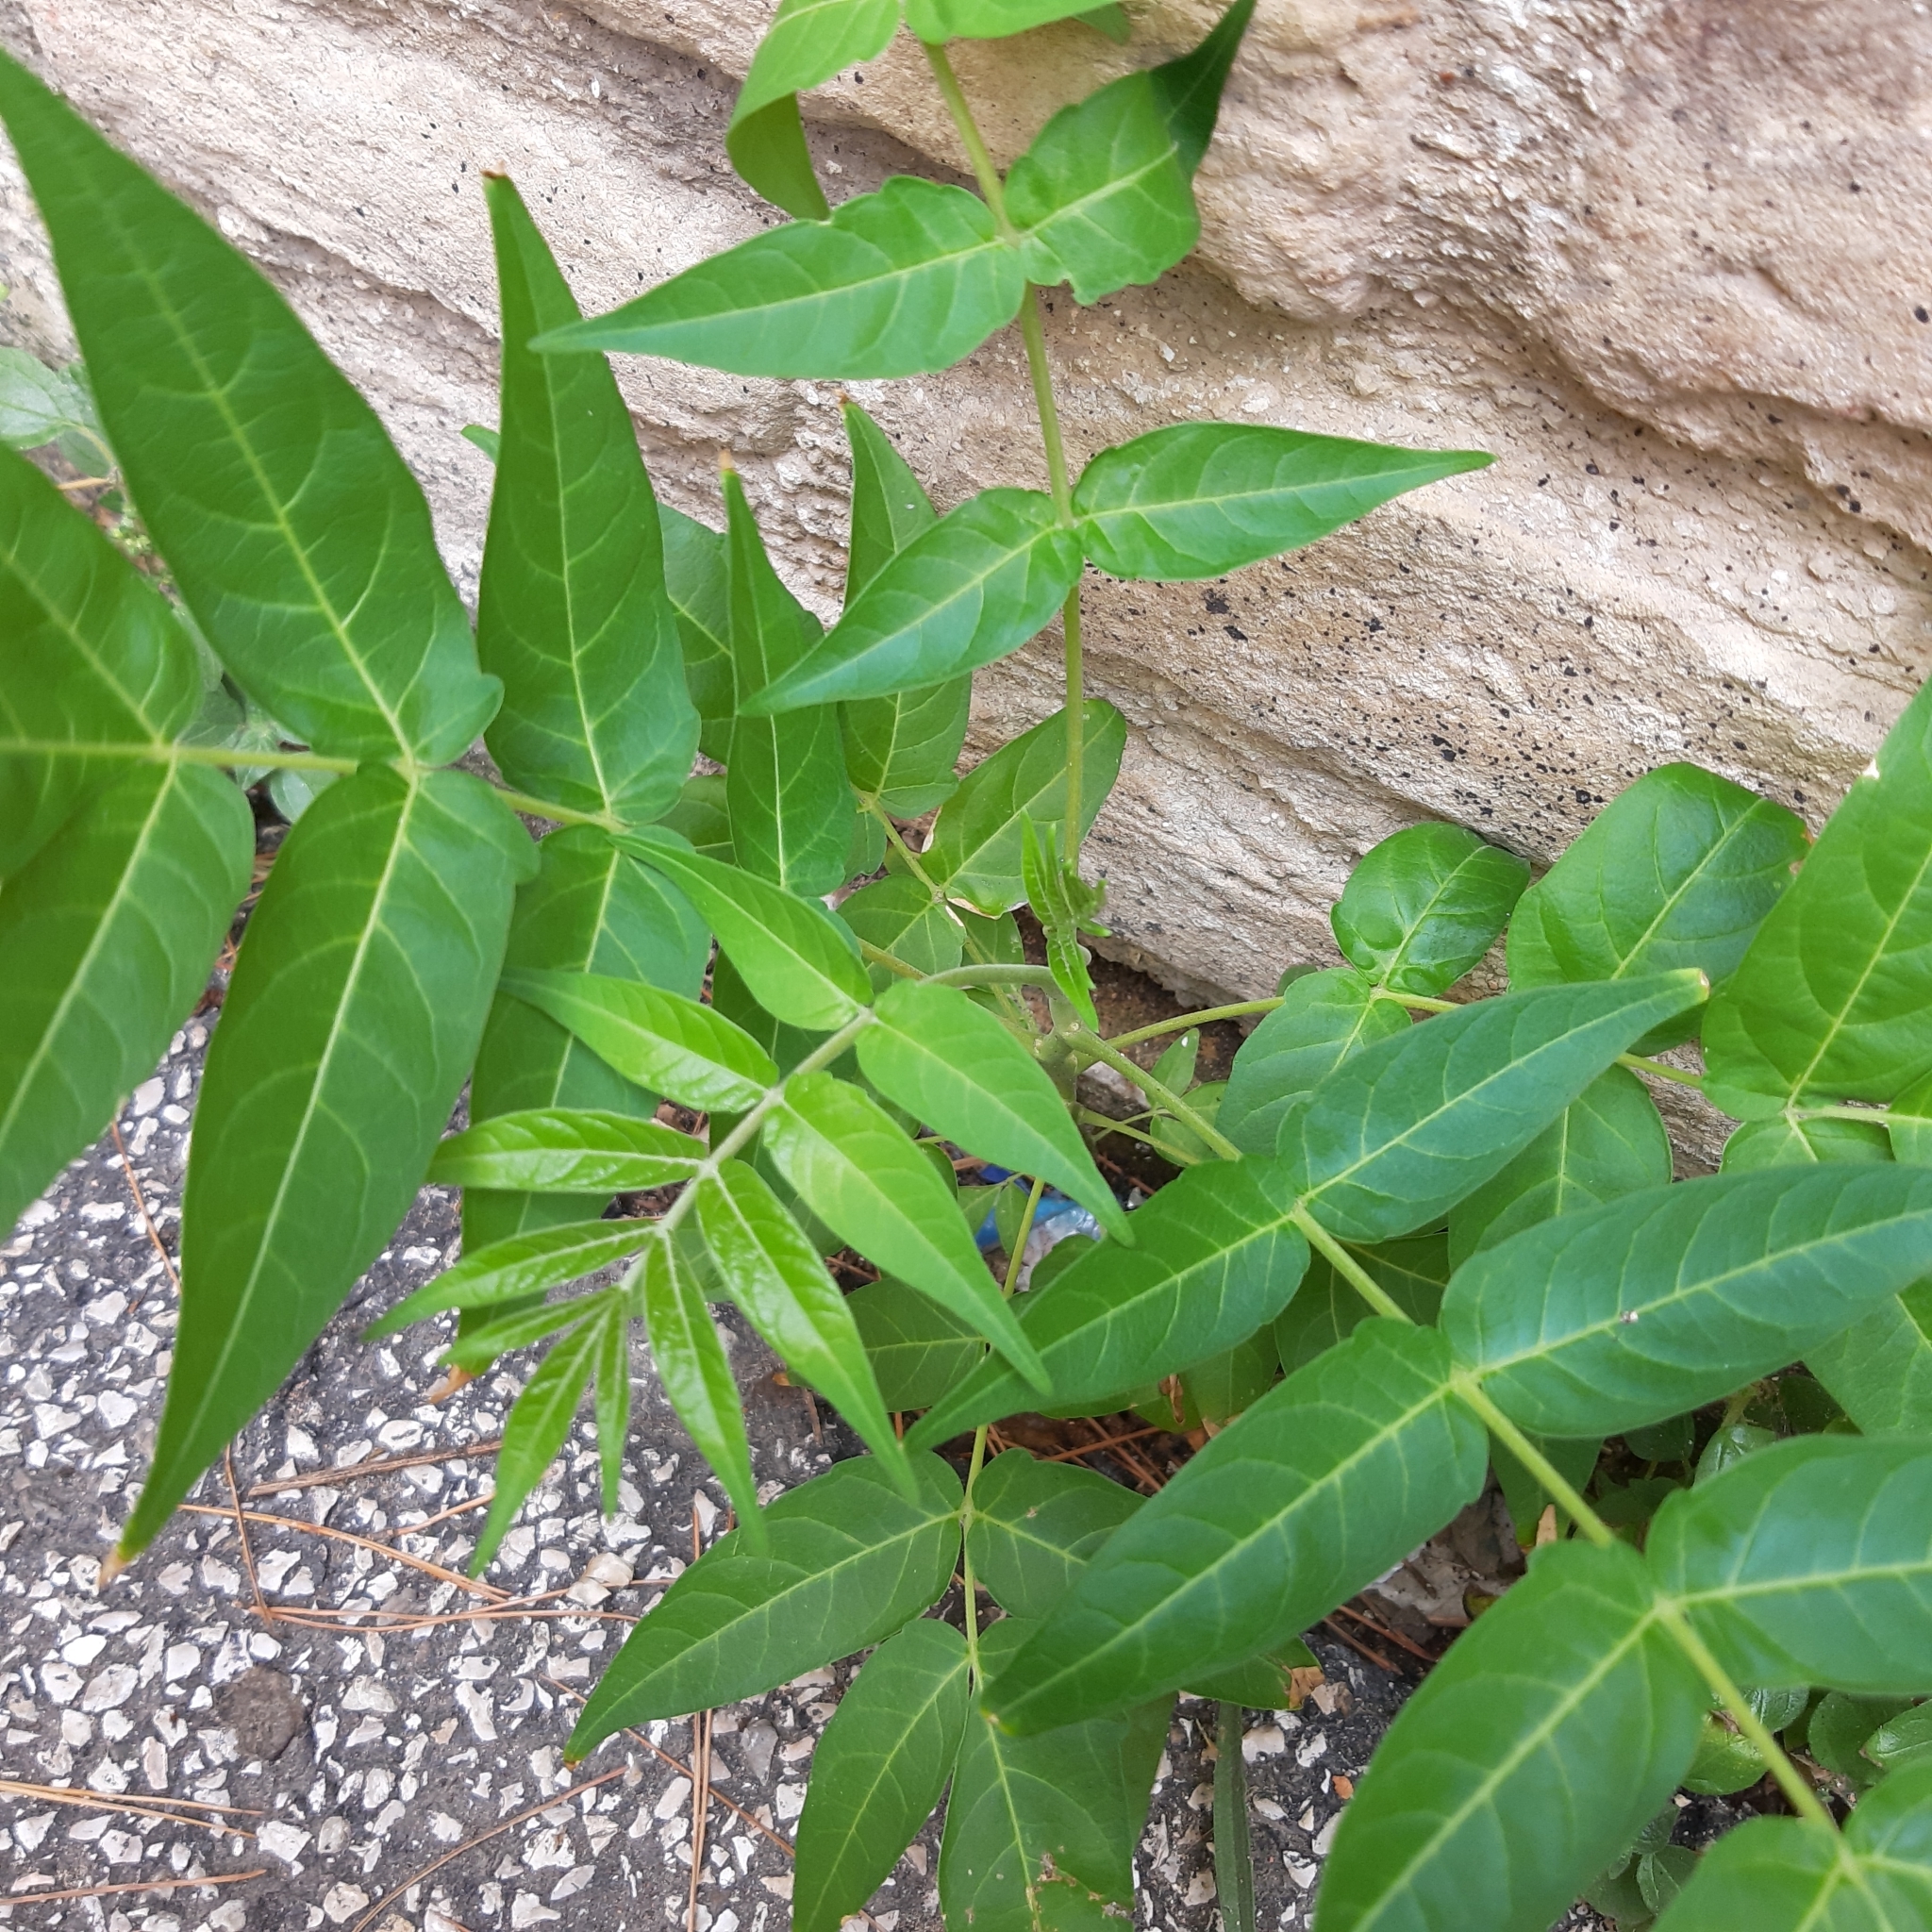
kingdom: Plantae
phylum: Tracheophyta
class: Magnoliopsida
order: Sapindales
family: Simaroubaceae
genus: Ailanthus
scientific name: Ailanthus altissima
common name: Tree-of-heaven
